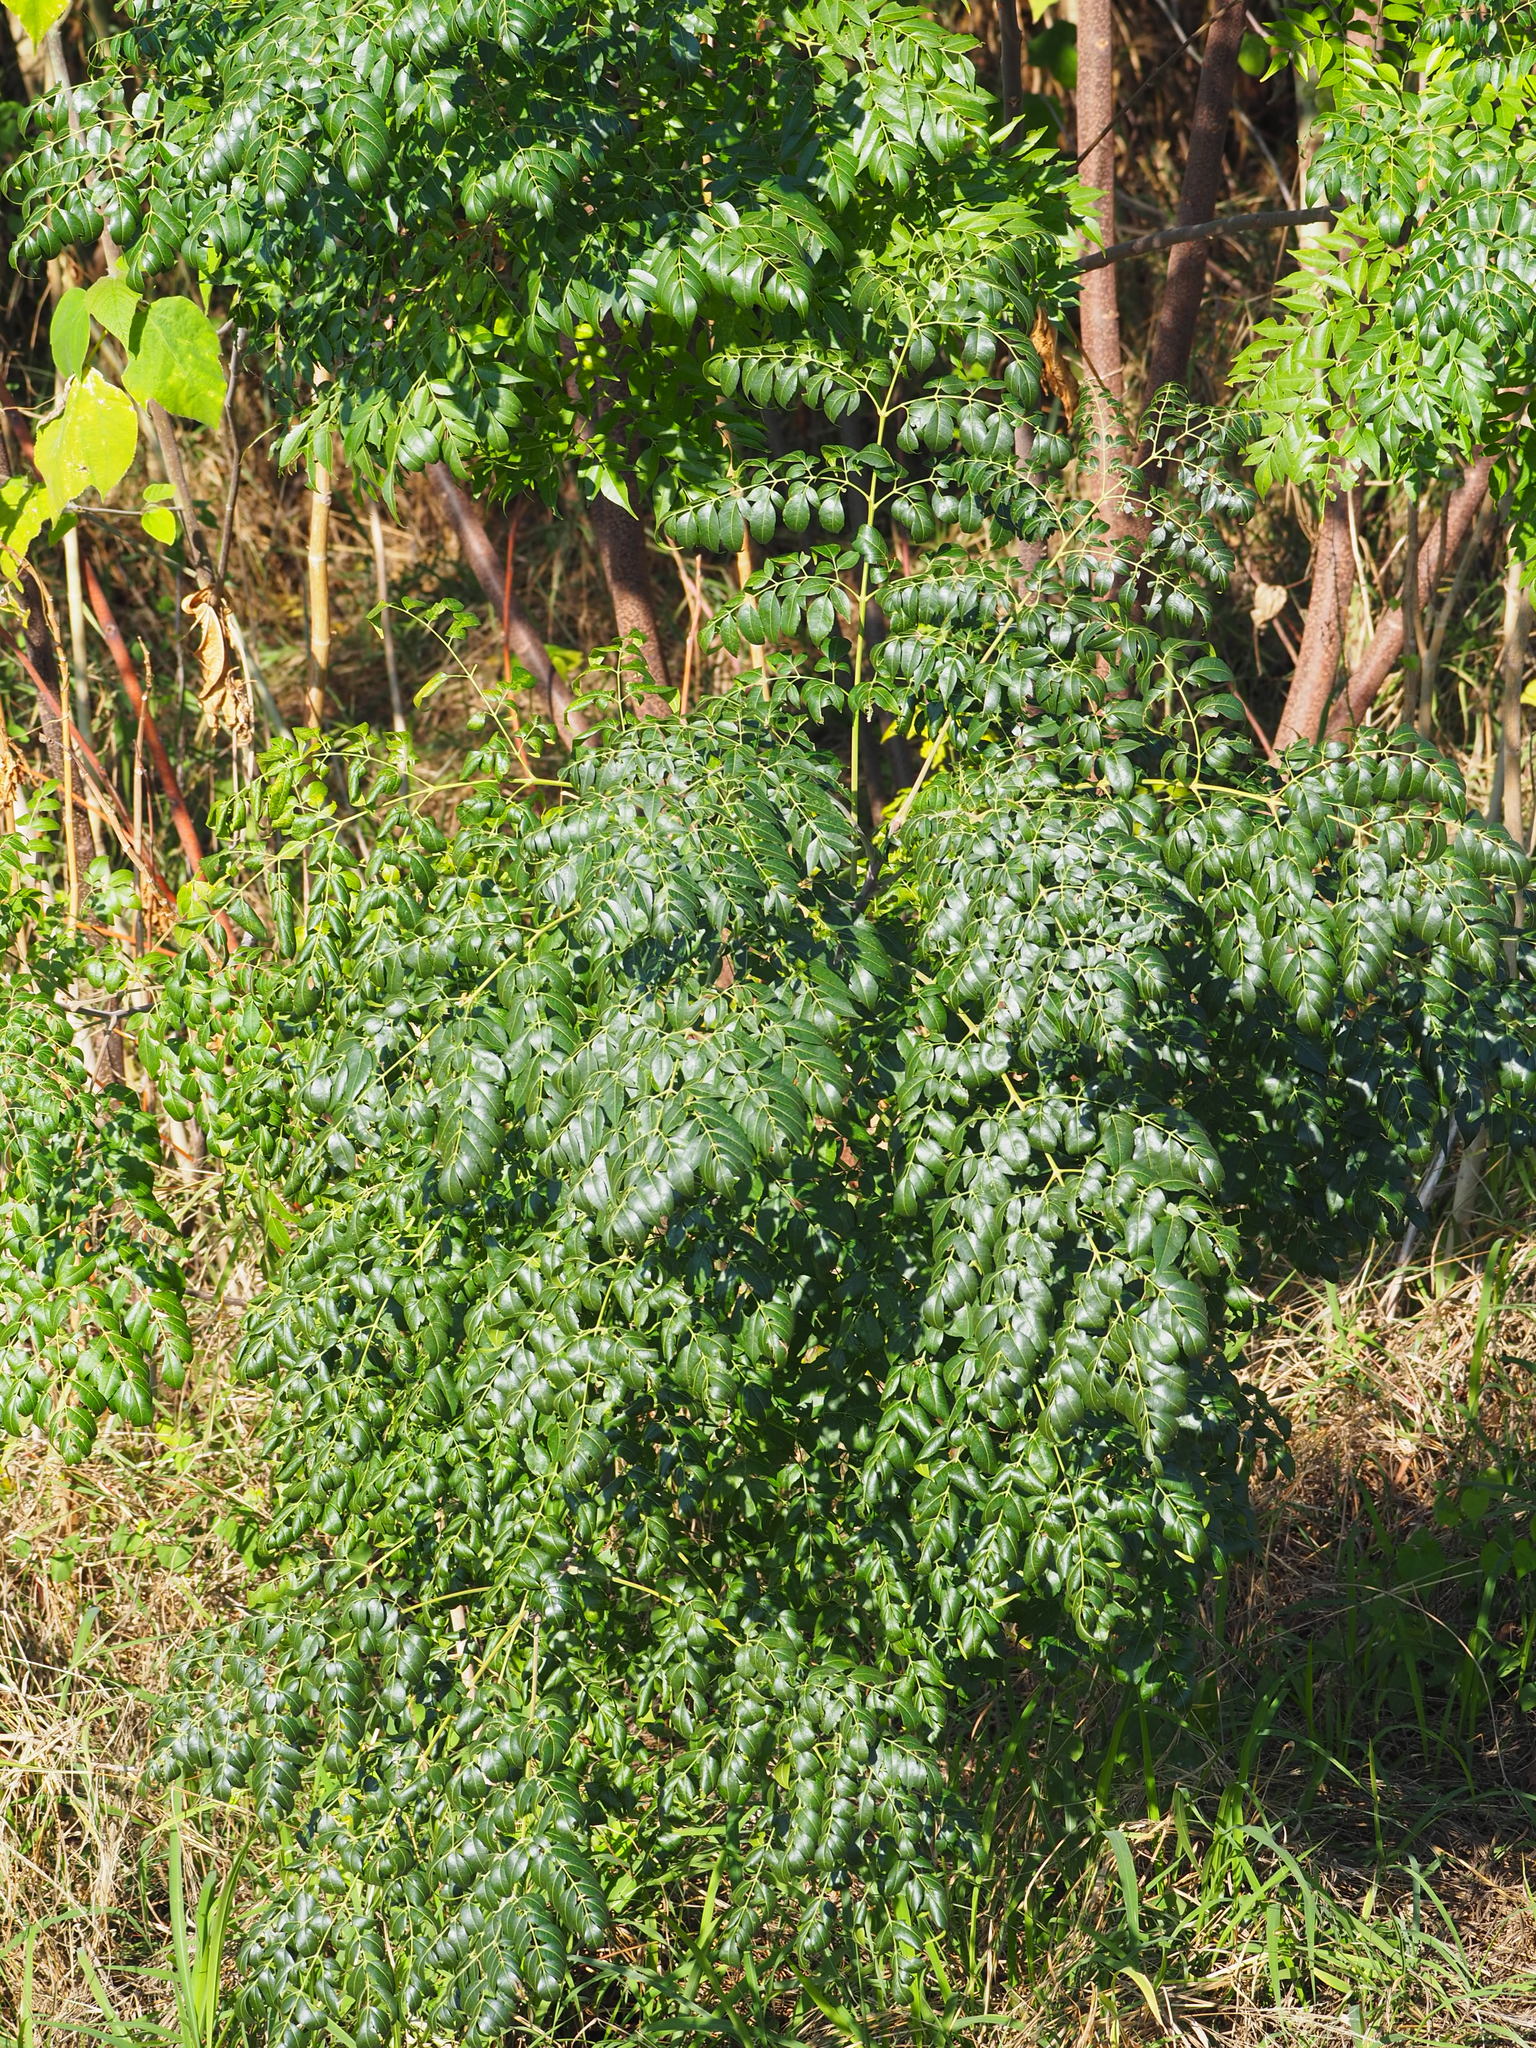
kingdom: Plantae
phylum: Tracheophyta
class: Magnoliopsida
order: Sapindales
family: Meliaceae
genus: Melia
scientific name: Melia azedarach
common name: Chinaberrytree
